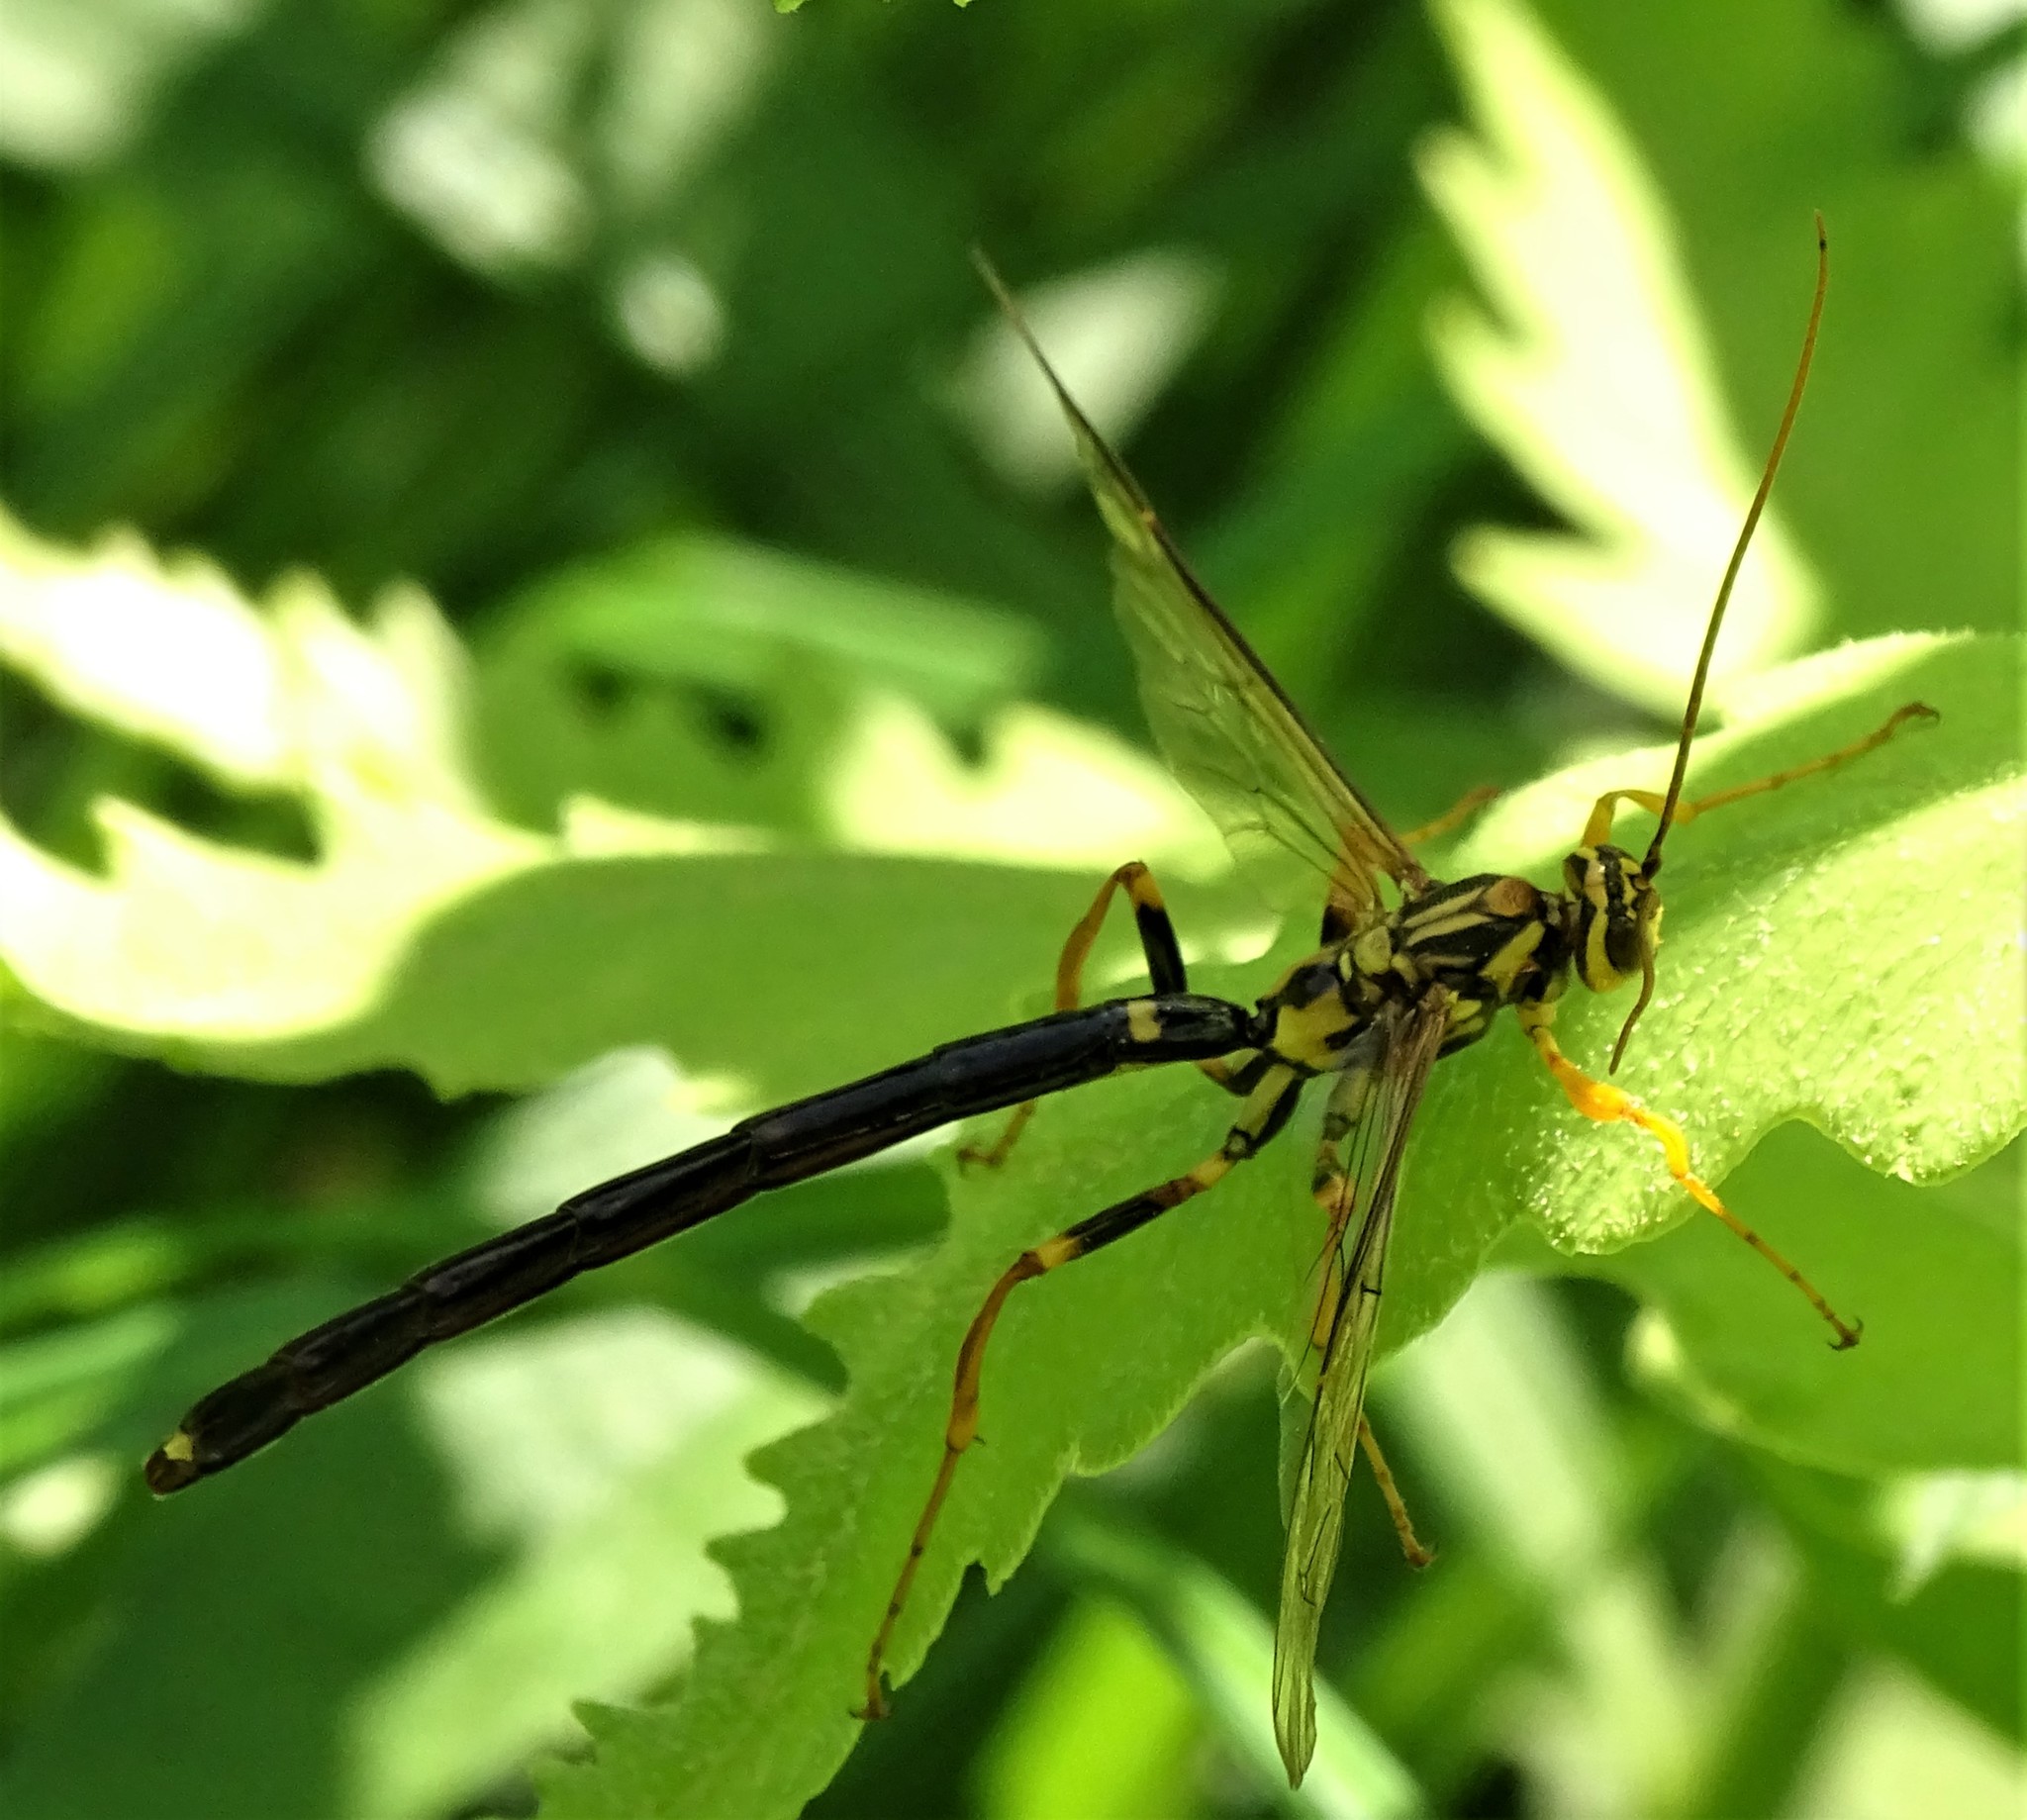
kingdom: Animalia
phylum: Arthropoda
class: Insecta
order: Hymenoptera
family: Ichneumonidae
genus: Megarhyssa
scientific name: Megarhyssa atrata
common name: Black giant ichneumonid wasp
